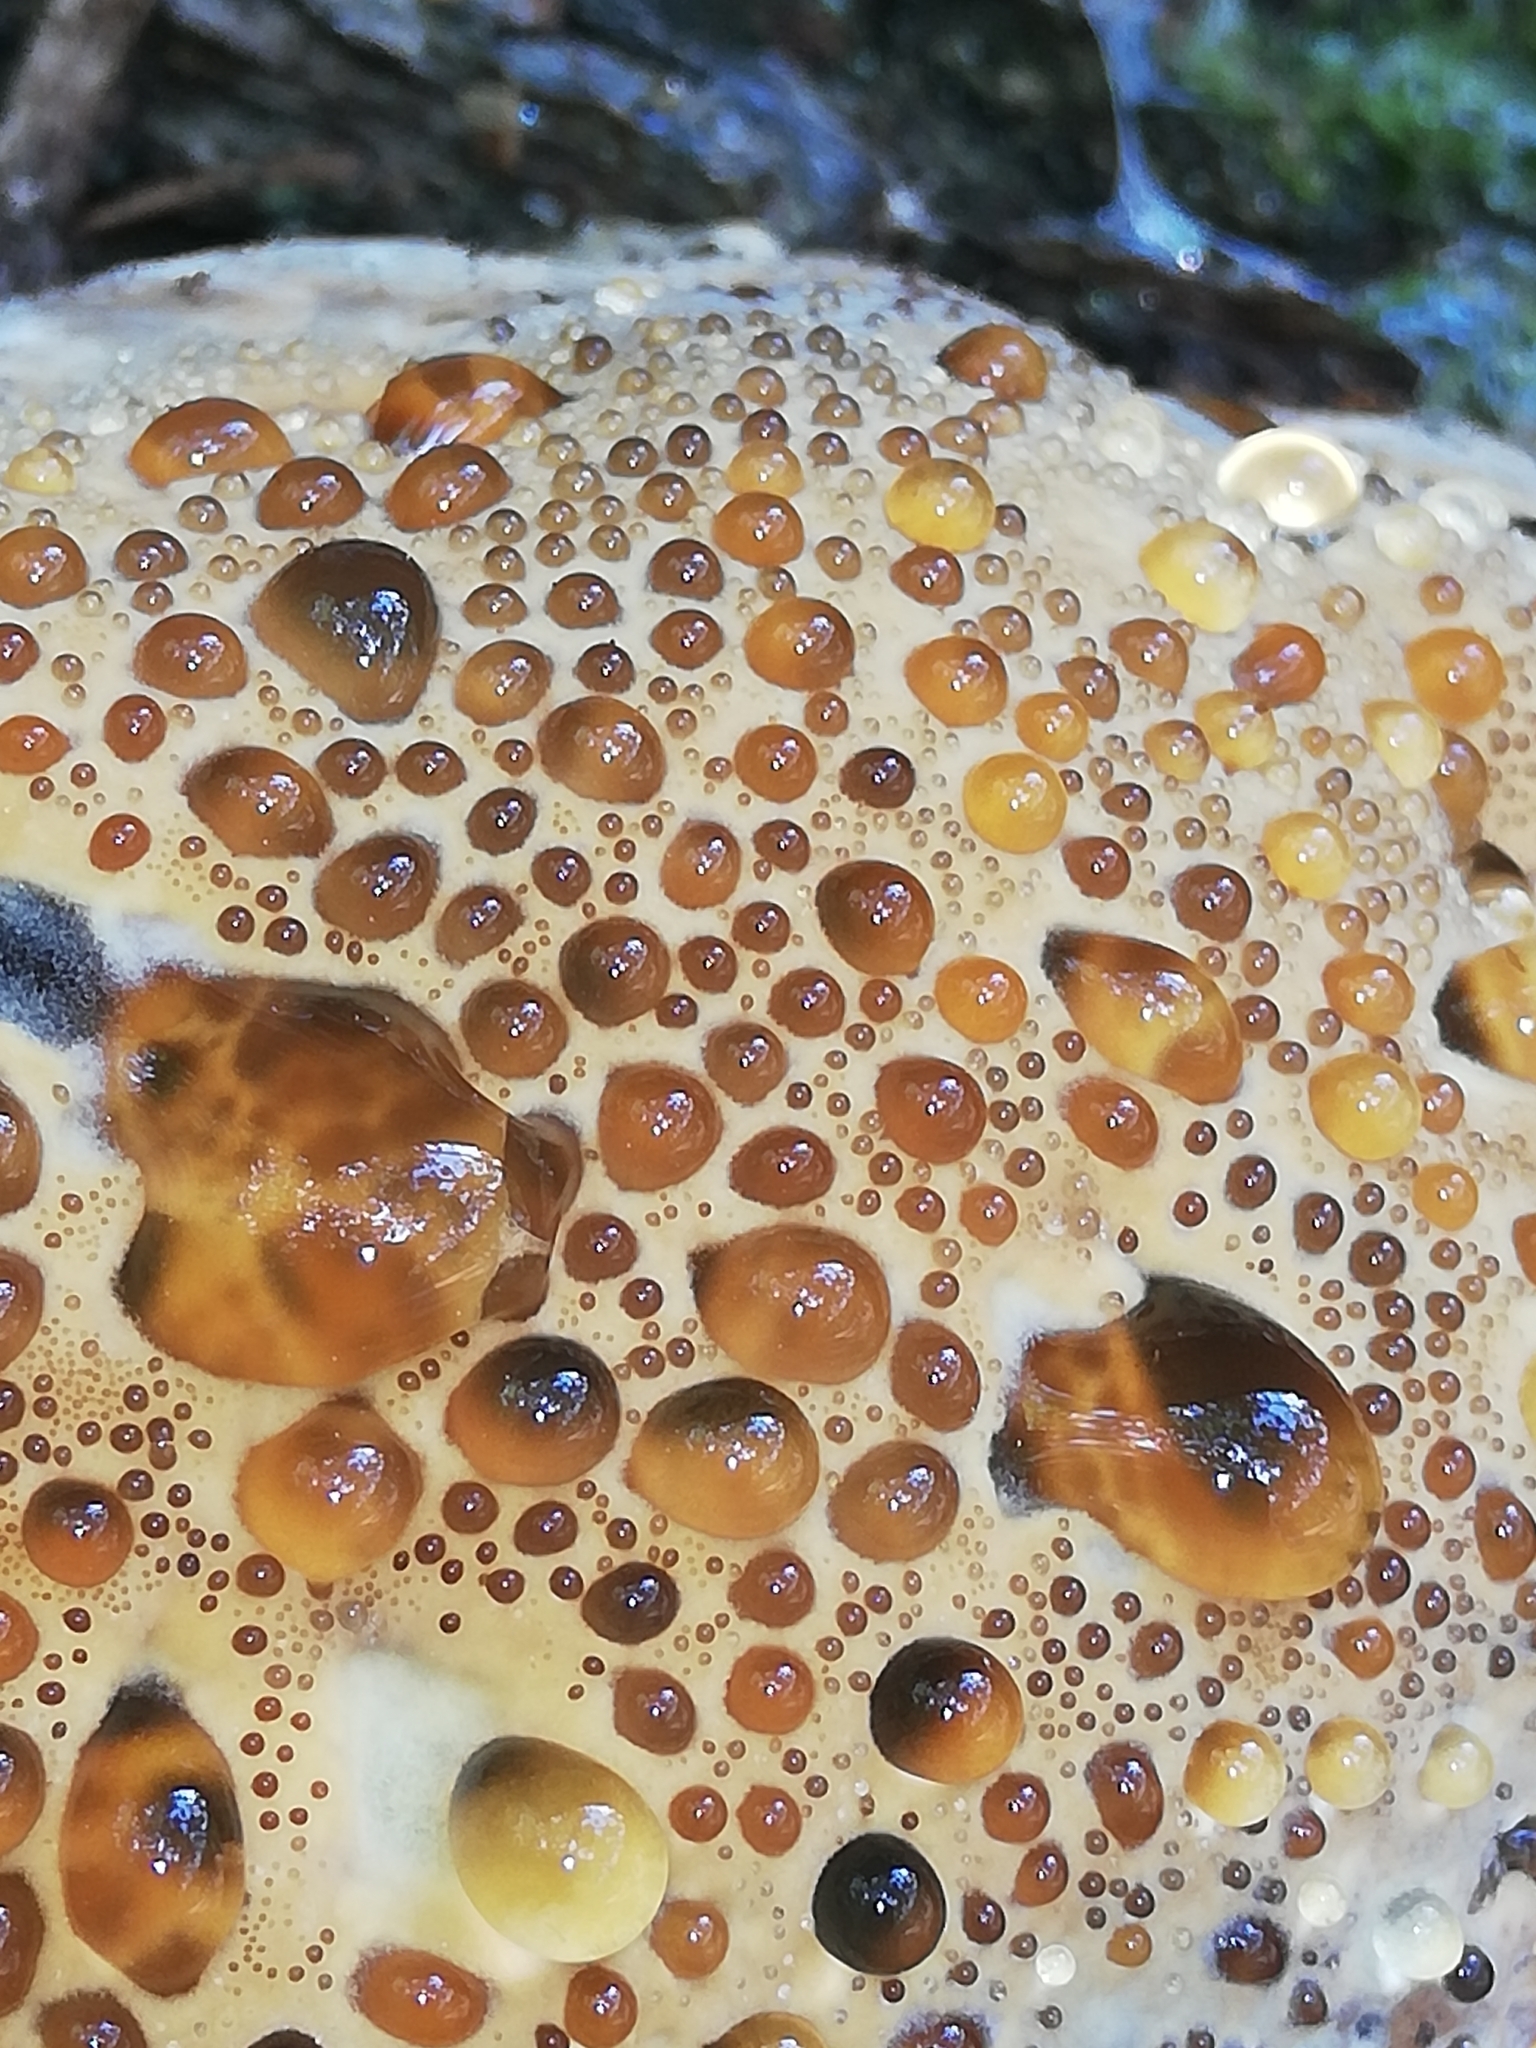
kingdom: Fungi
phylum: Basidiomycota
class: Agaricomycetes
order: Hymenochaetales
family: Hymenochaetaceae
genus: Pseudoinonotus
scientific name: Pseudoinonotus dryadeus
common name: Oak bracket
